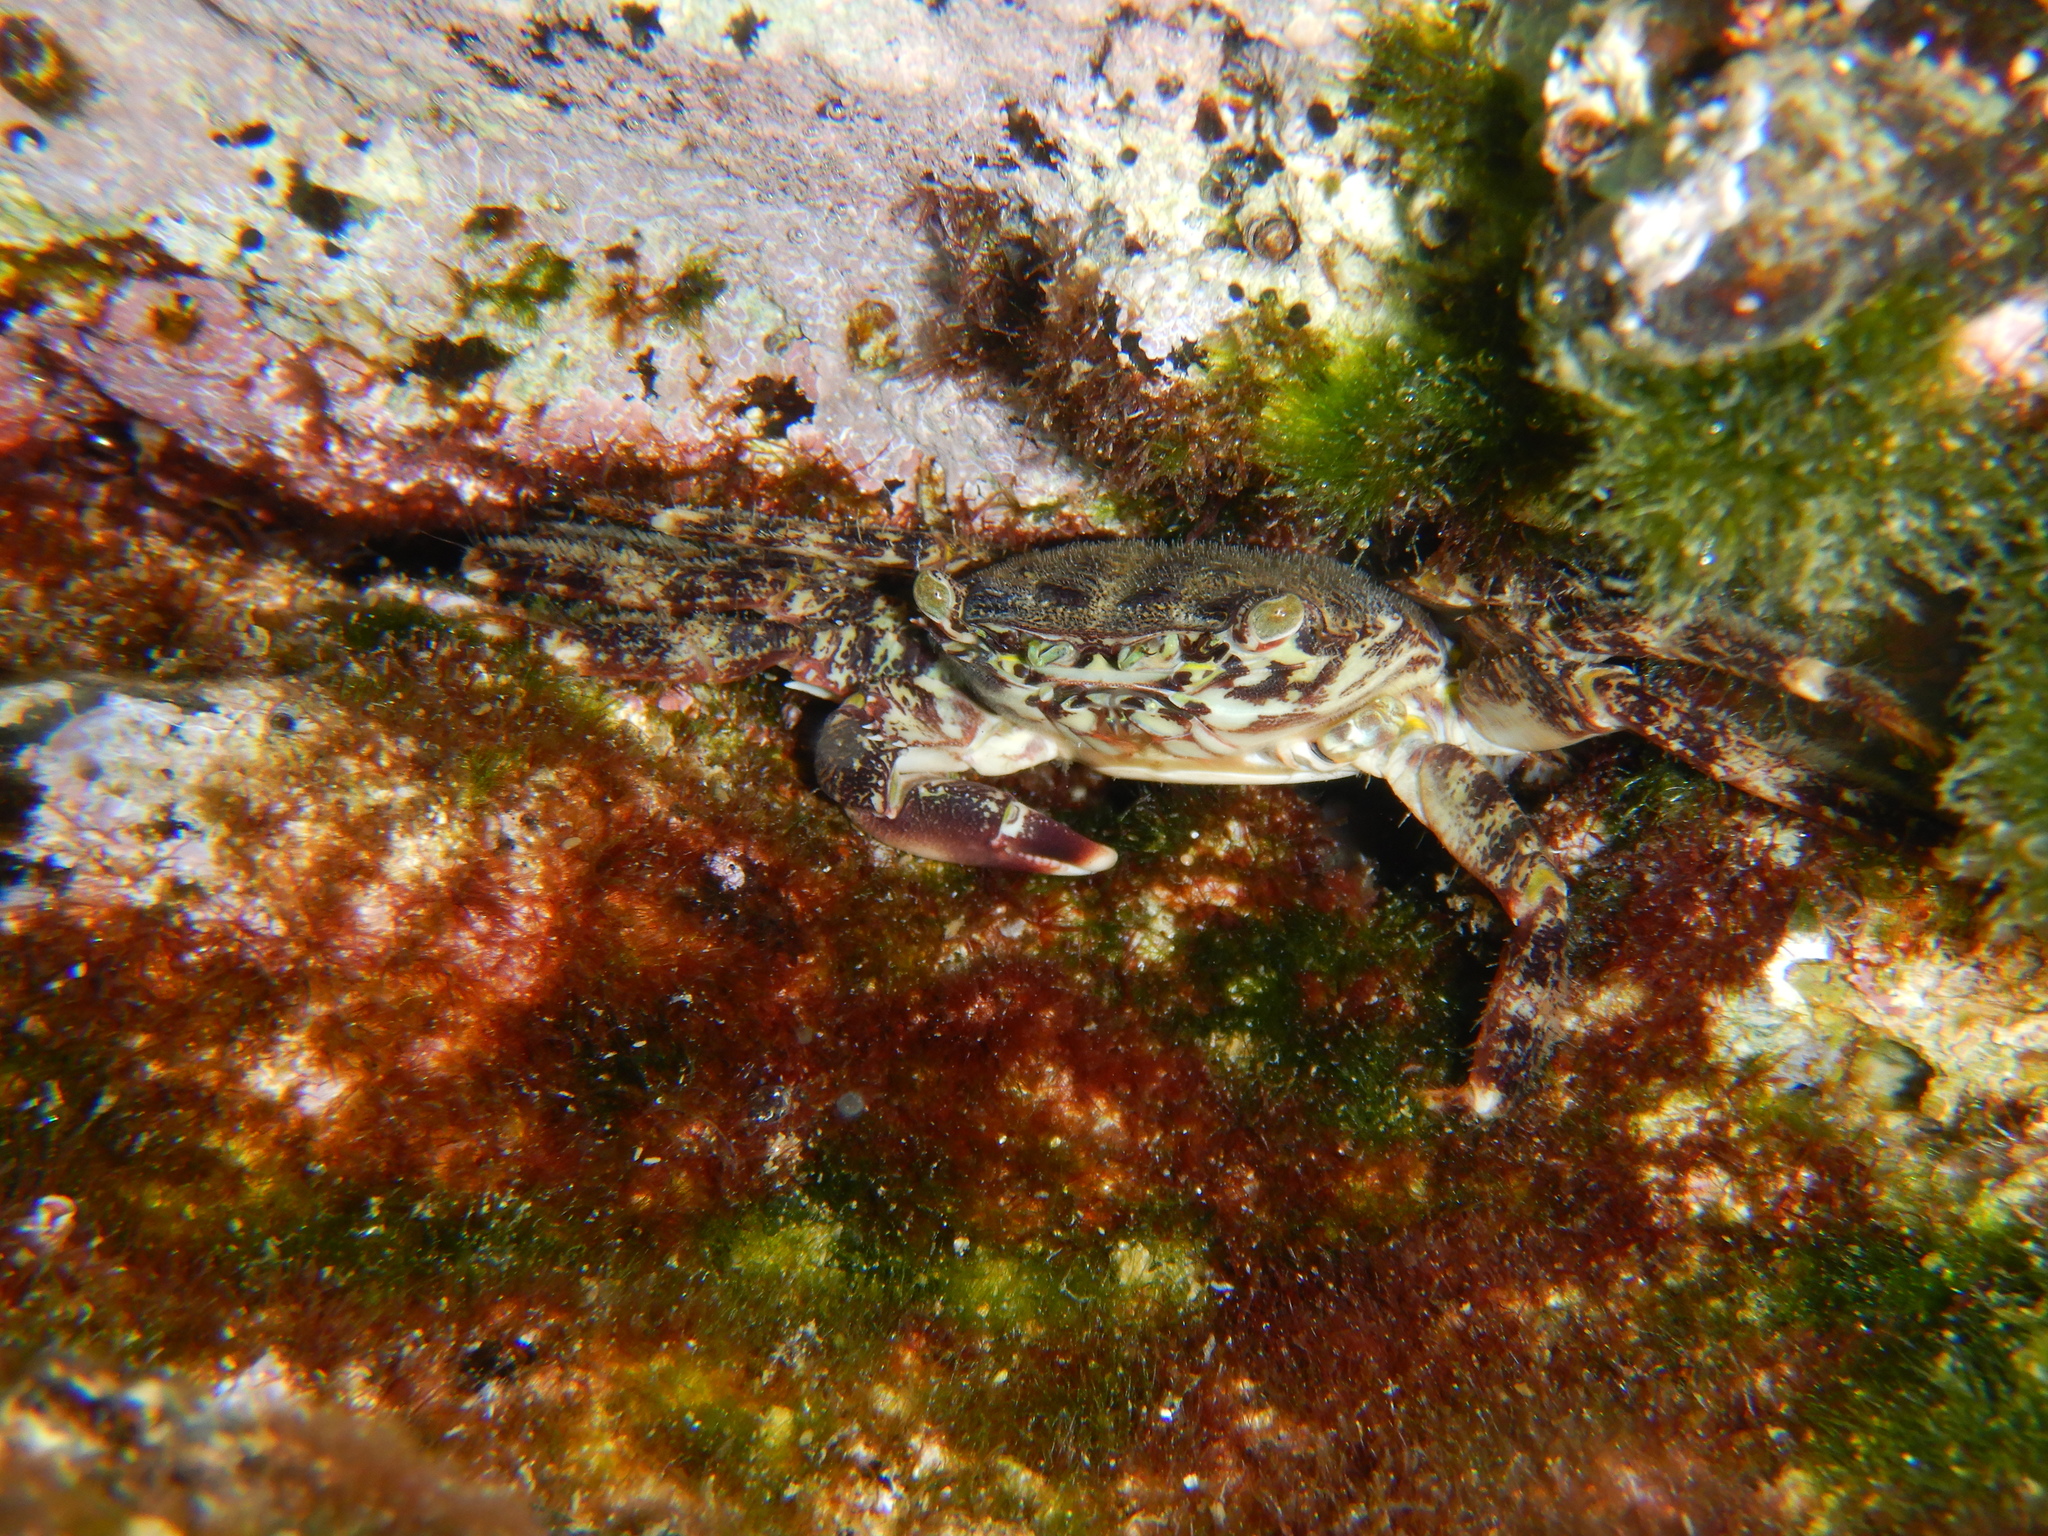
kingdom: Animalia
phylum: Arthropoda
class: Malacostraca
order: Decapoda
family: Grapsidae
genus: Pachygrapsus
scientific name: Pachygrapsus marmoratus
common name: Marbled rock crab
